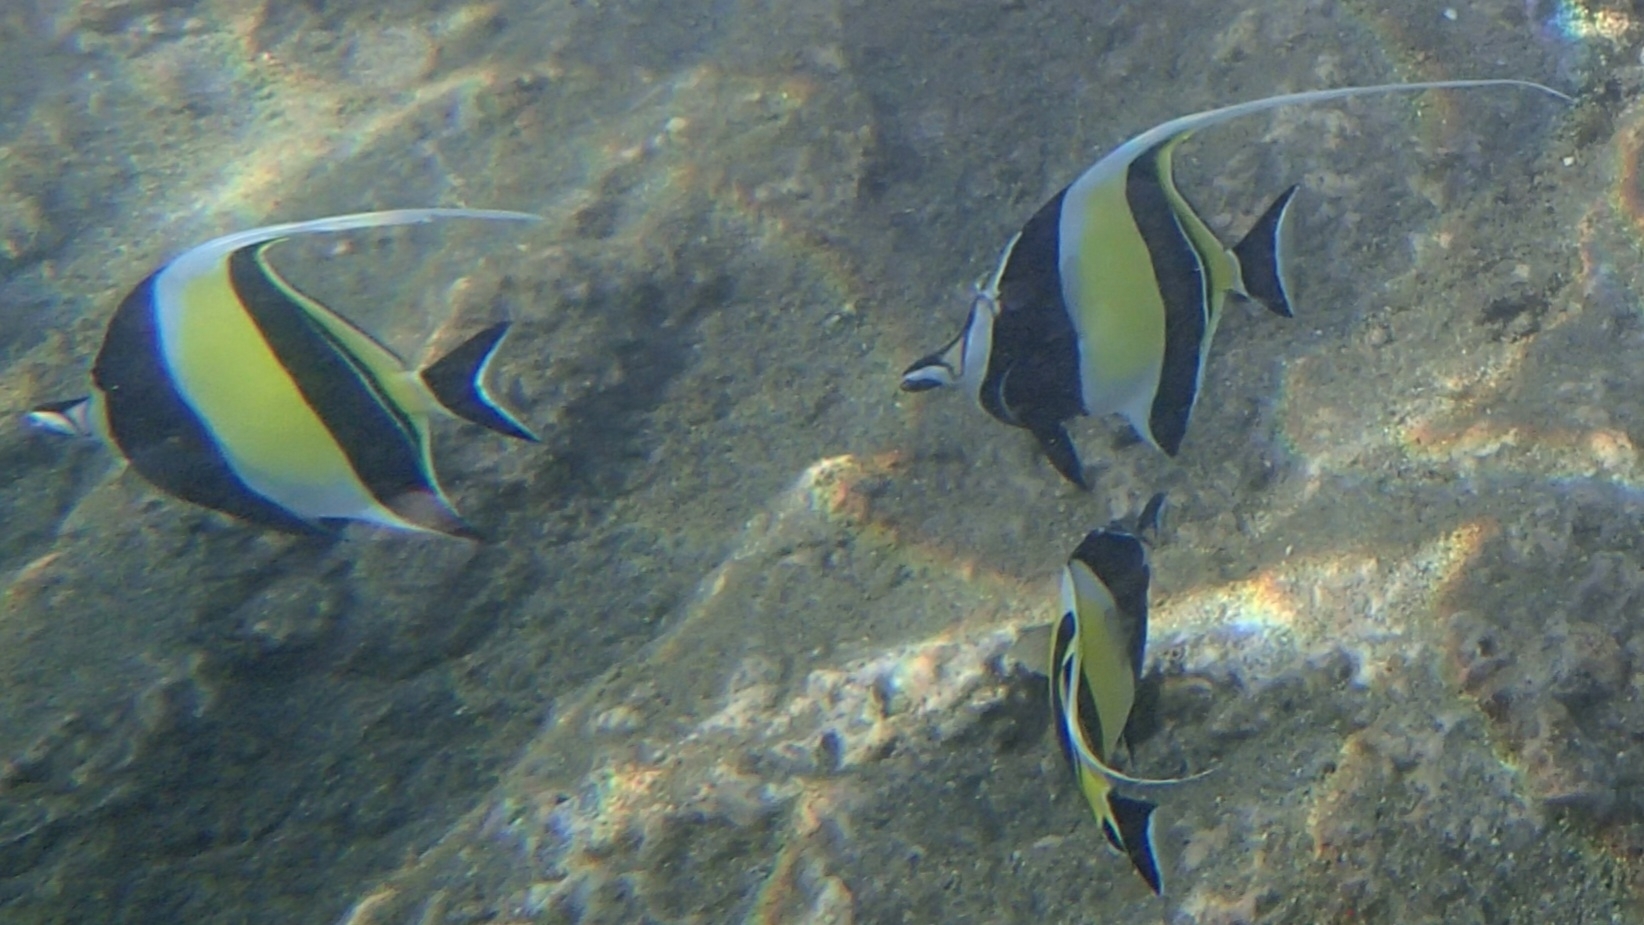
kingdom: Animalia
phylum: Chordata
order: Perciformes
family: Zanclidae
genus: Zanclus
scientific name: Zanclus cornutus
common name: Moorish idol
